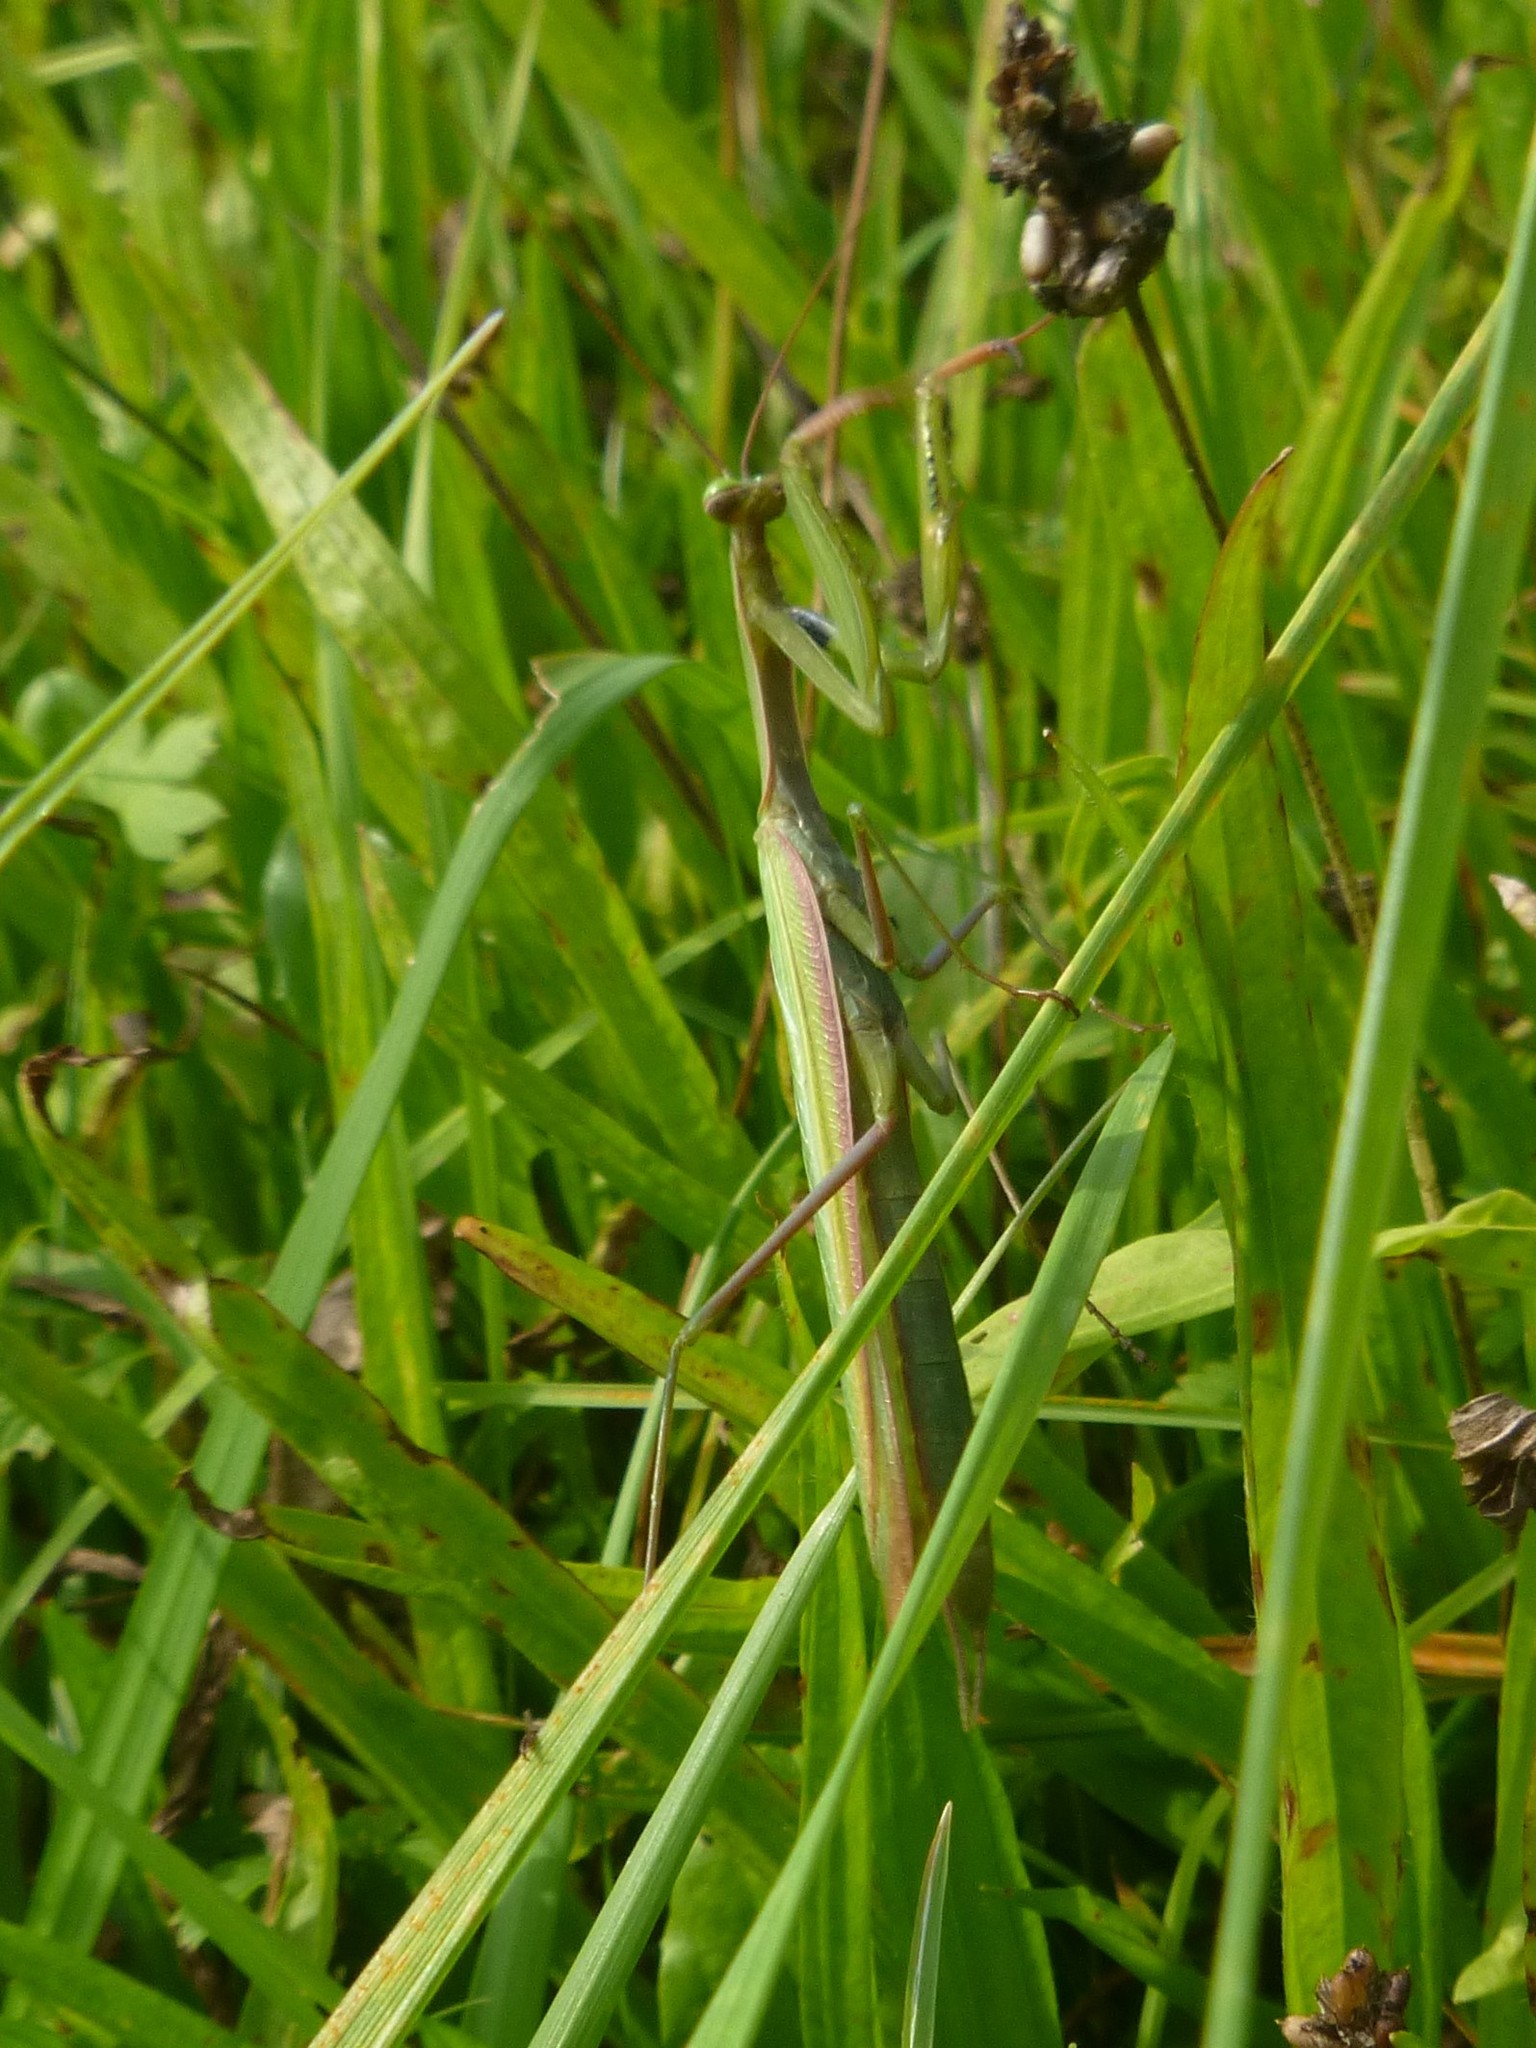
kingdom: Animalia
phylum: Arthropoda
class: Insecta
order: Mantodea
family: Mantidae
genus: Mantis
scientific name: Mantis religiosa
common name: Praying mantis
